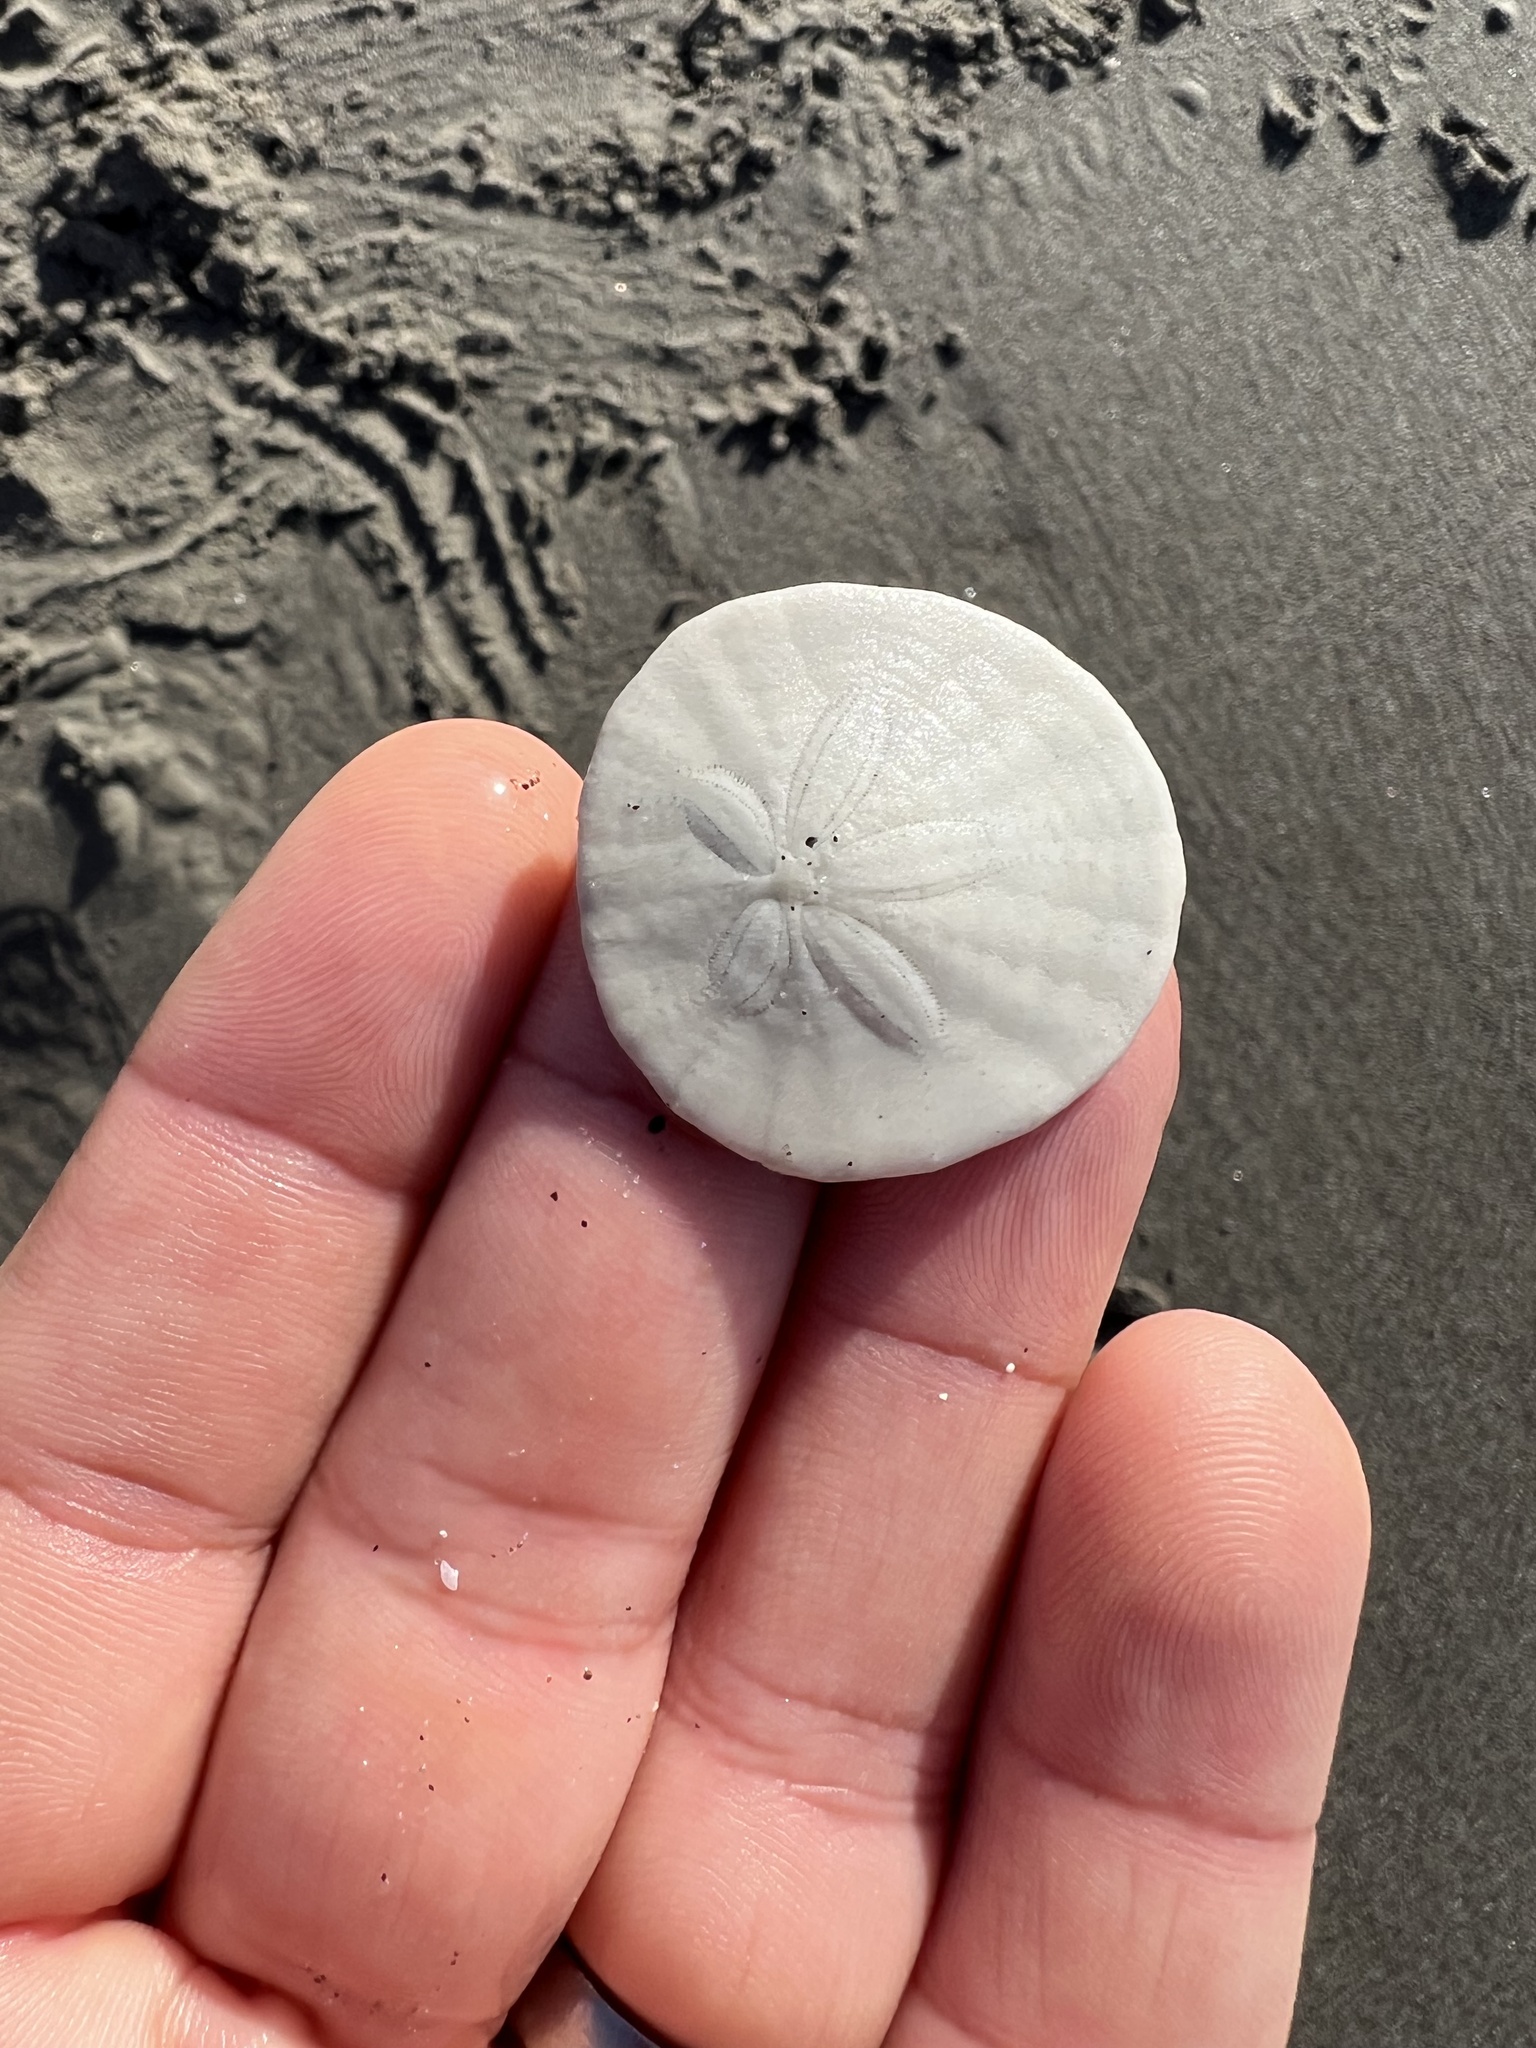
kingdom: Animalia
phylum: Echinodermata
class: Echinoidea
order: Echinolampadacea
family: Dendrasteridae
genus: Dendraster
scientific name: Dendraster excentricus
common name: Eccentric sand dollar sea urchin
